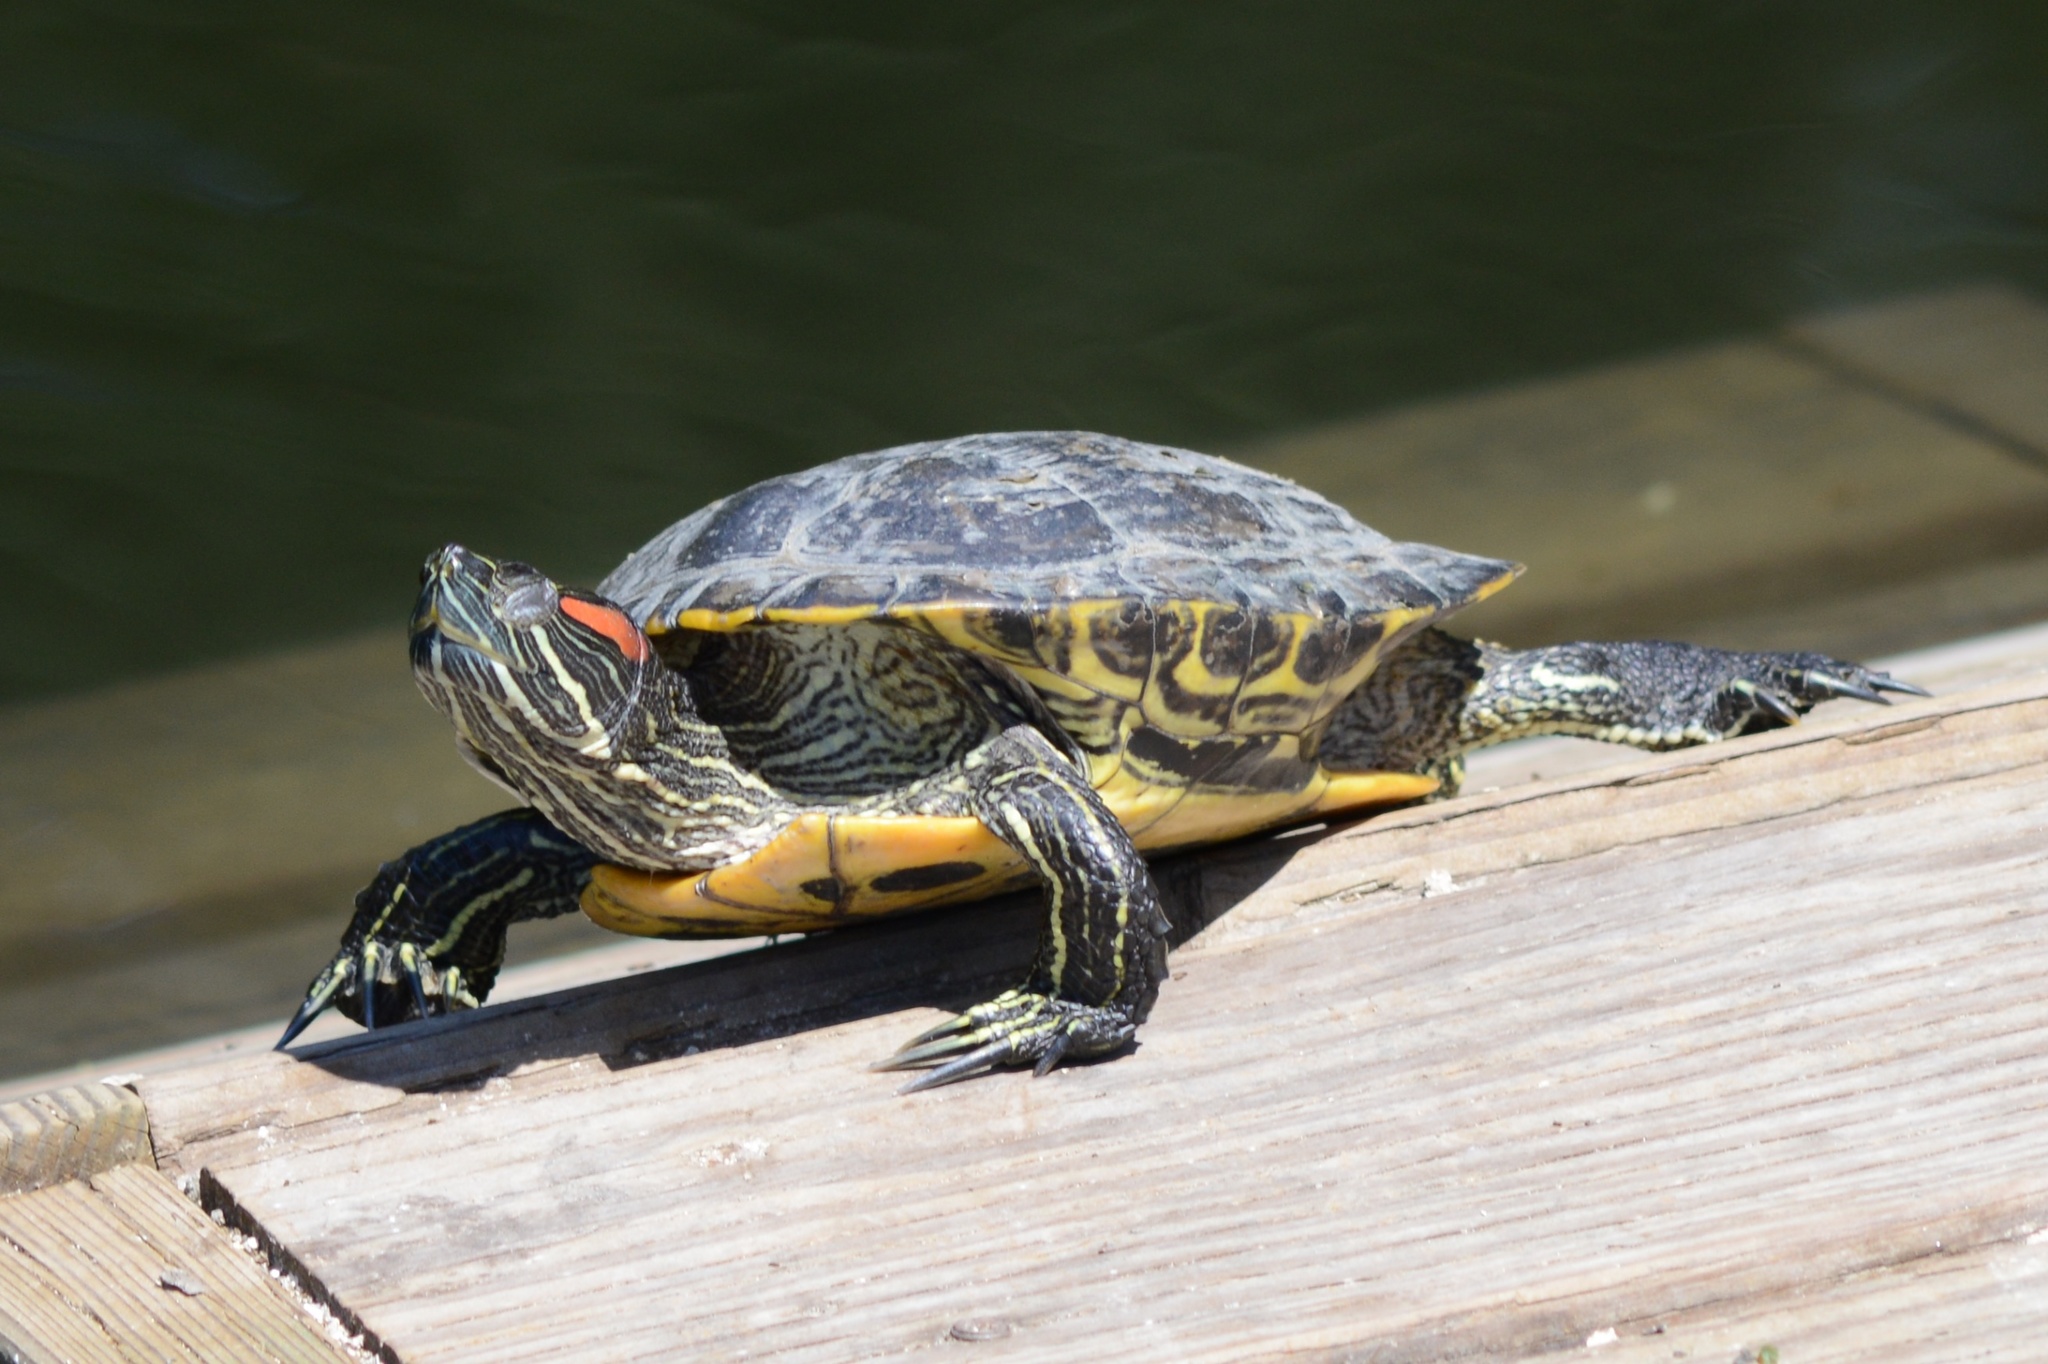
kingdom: Animalia
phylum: Chordata
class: Testudines
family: Emydidae
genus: Trachemys
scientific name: Trachemys scripta
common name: Slider
